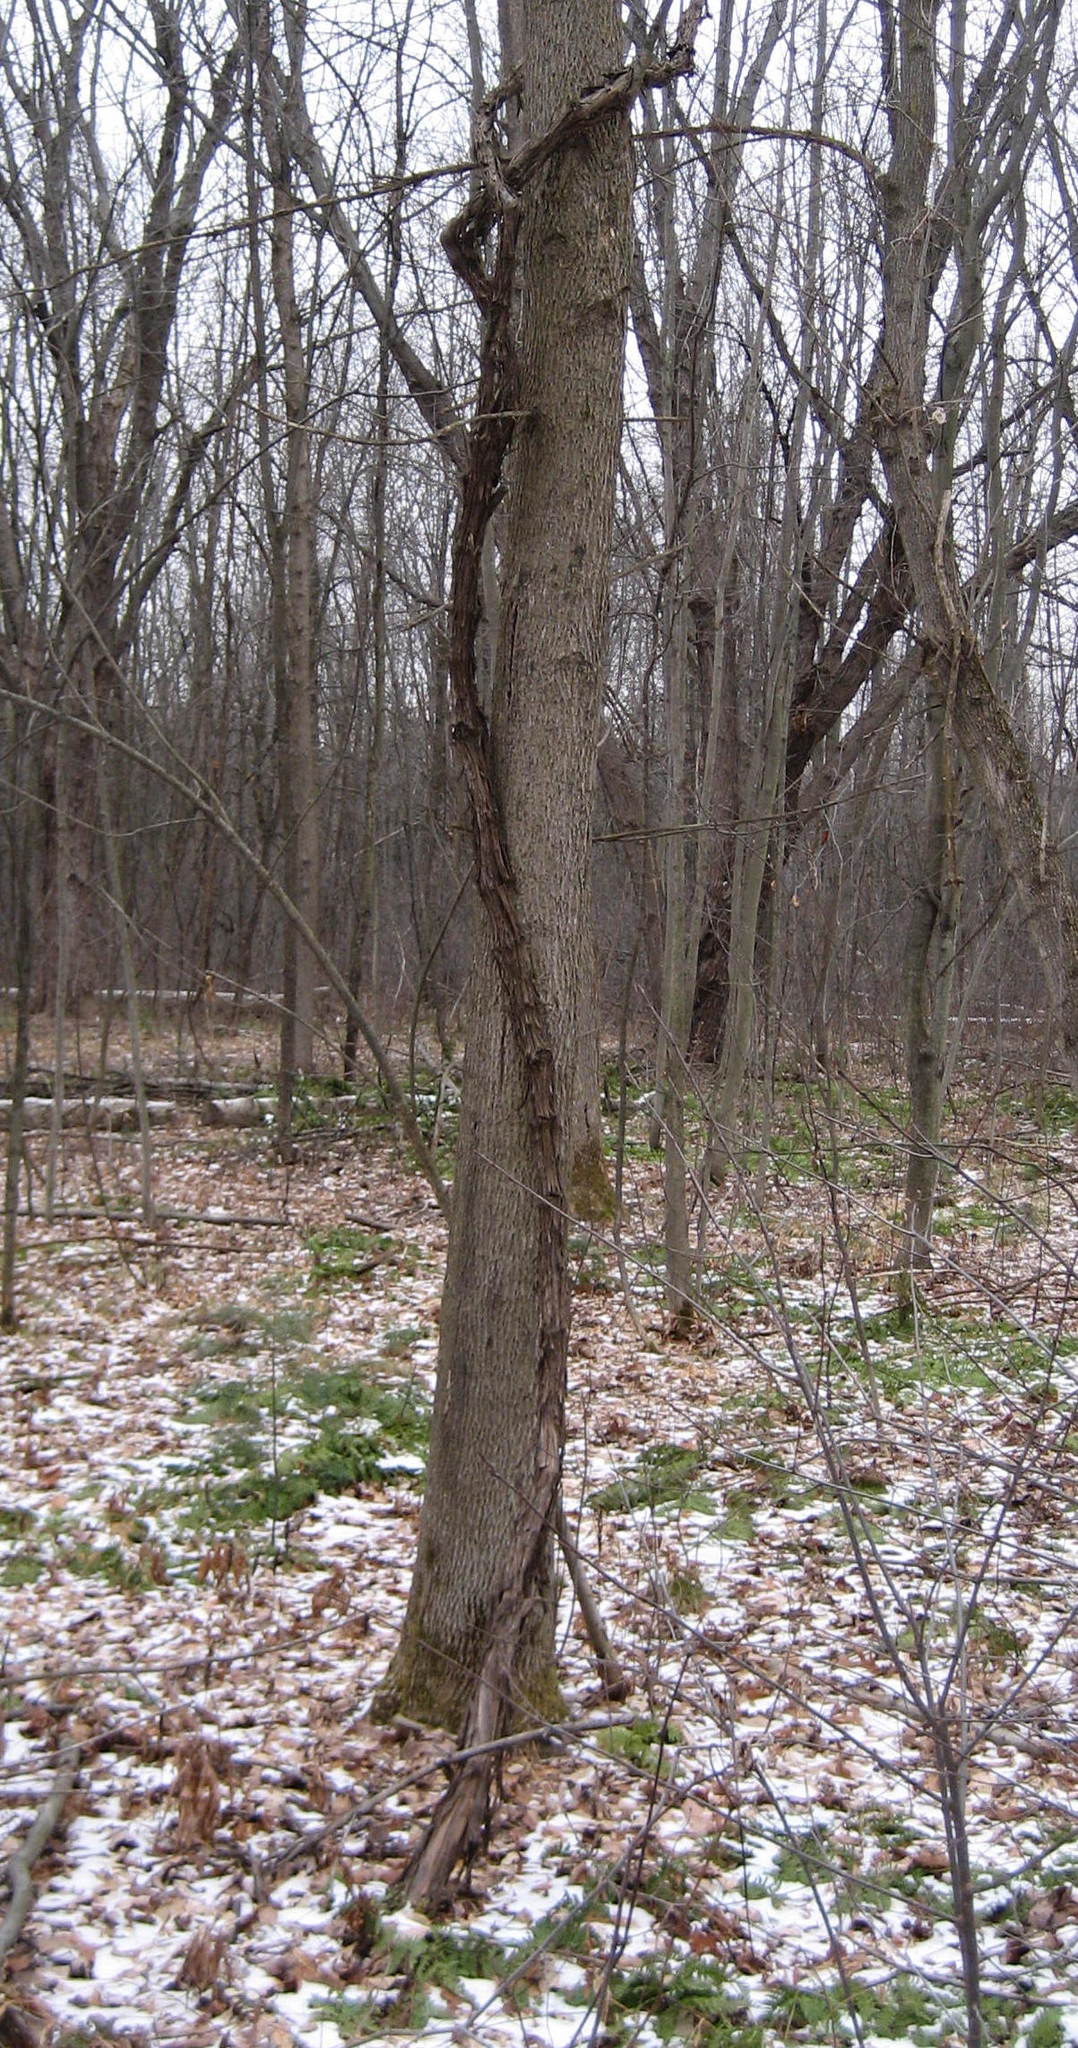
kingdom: Plantae
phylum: Tracheophyta
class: Magnoliopsida
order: Vitales
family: Vitaceae
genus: Vitis
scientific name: Vitis riparia
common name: Frost grape
